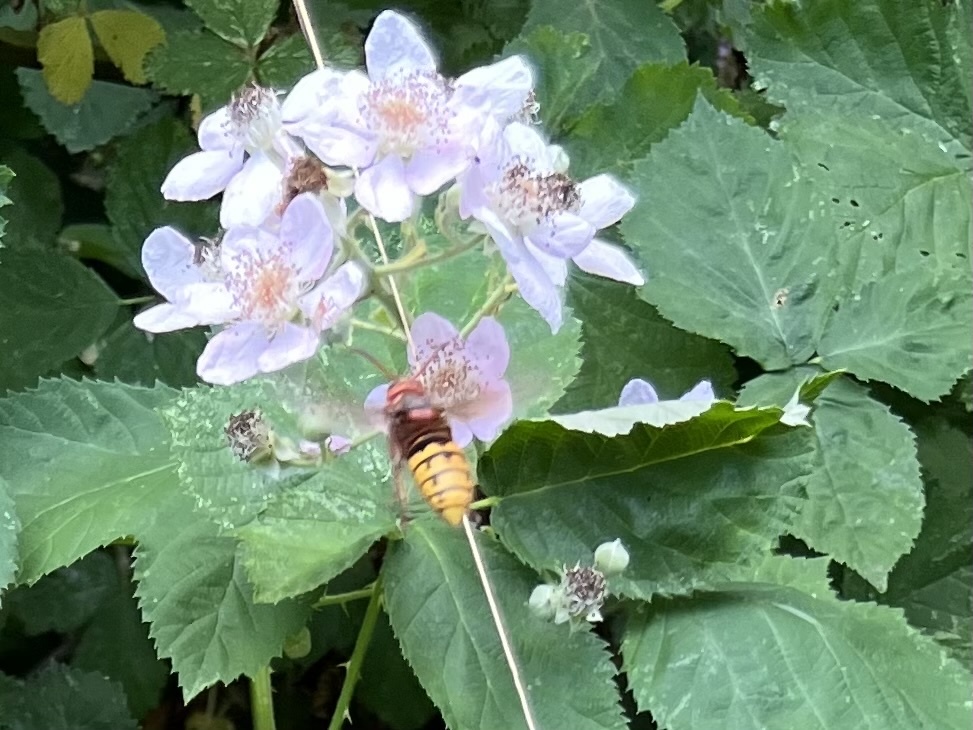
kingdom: Animalia
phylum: Arthropoda
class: Insecta
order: Hymenoptera
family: Vespidae
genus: Vespa
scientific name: Vespa crabro
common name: Hornet
